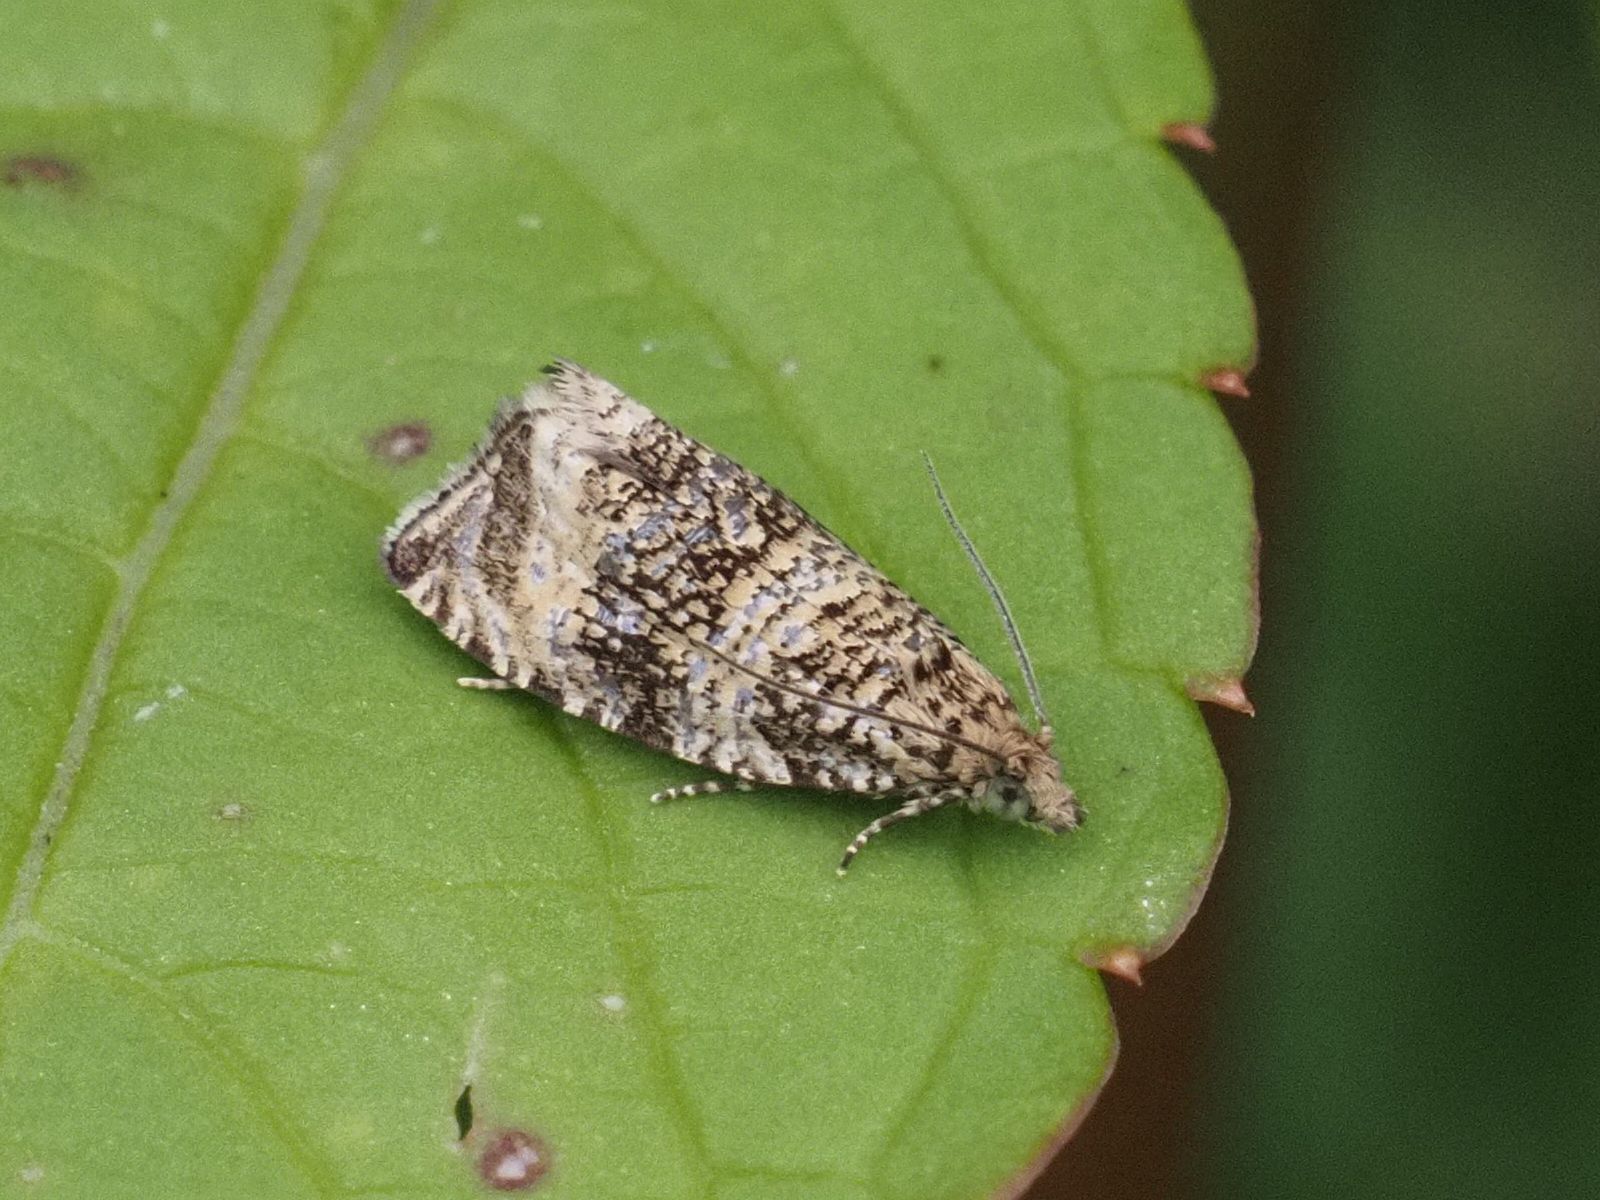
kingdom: Animalia
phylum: Arthropoda
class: Insecta
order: Lepidoptera
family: Tortricidae
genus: Syricoris
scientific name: Syricoris lacunana
